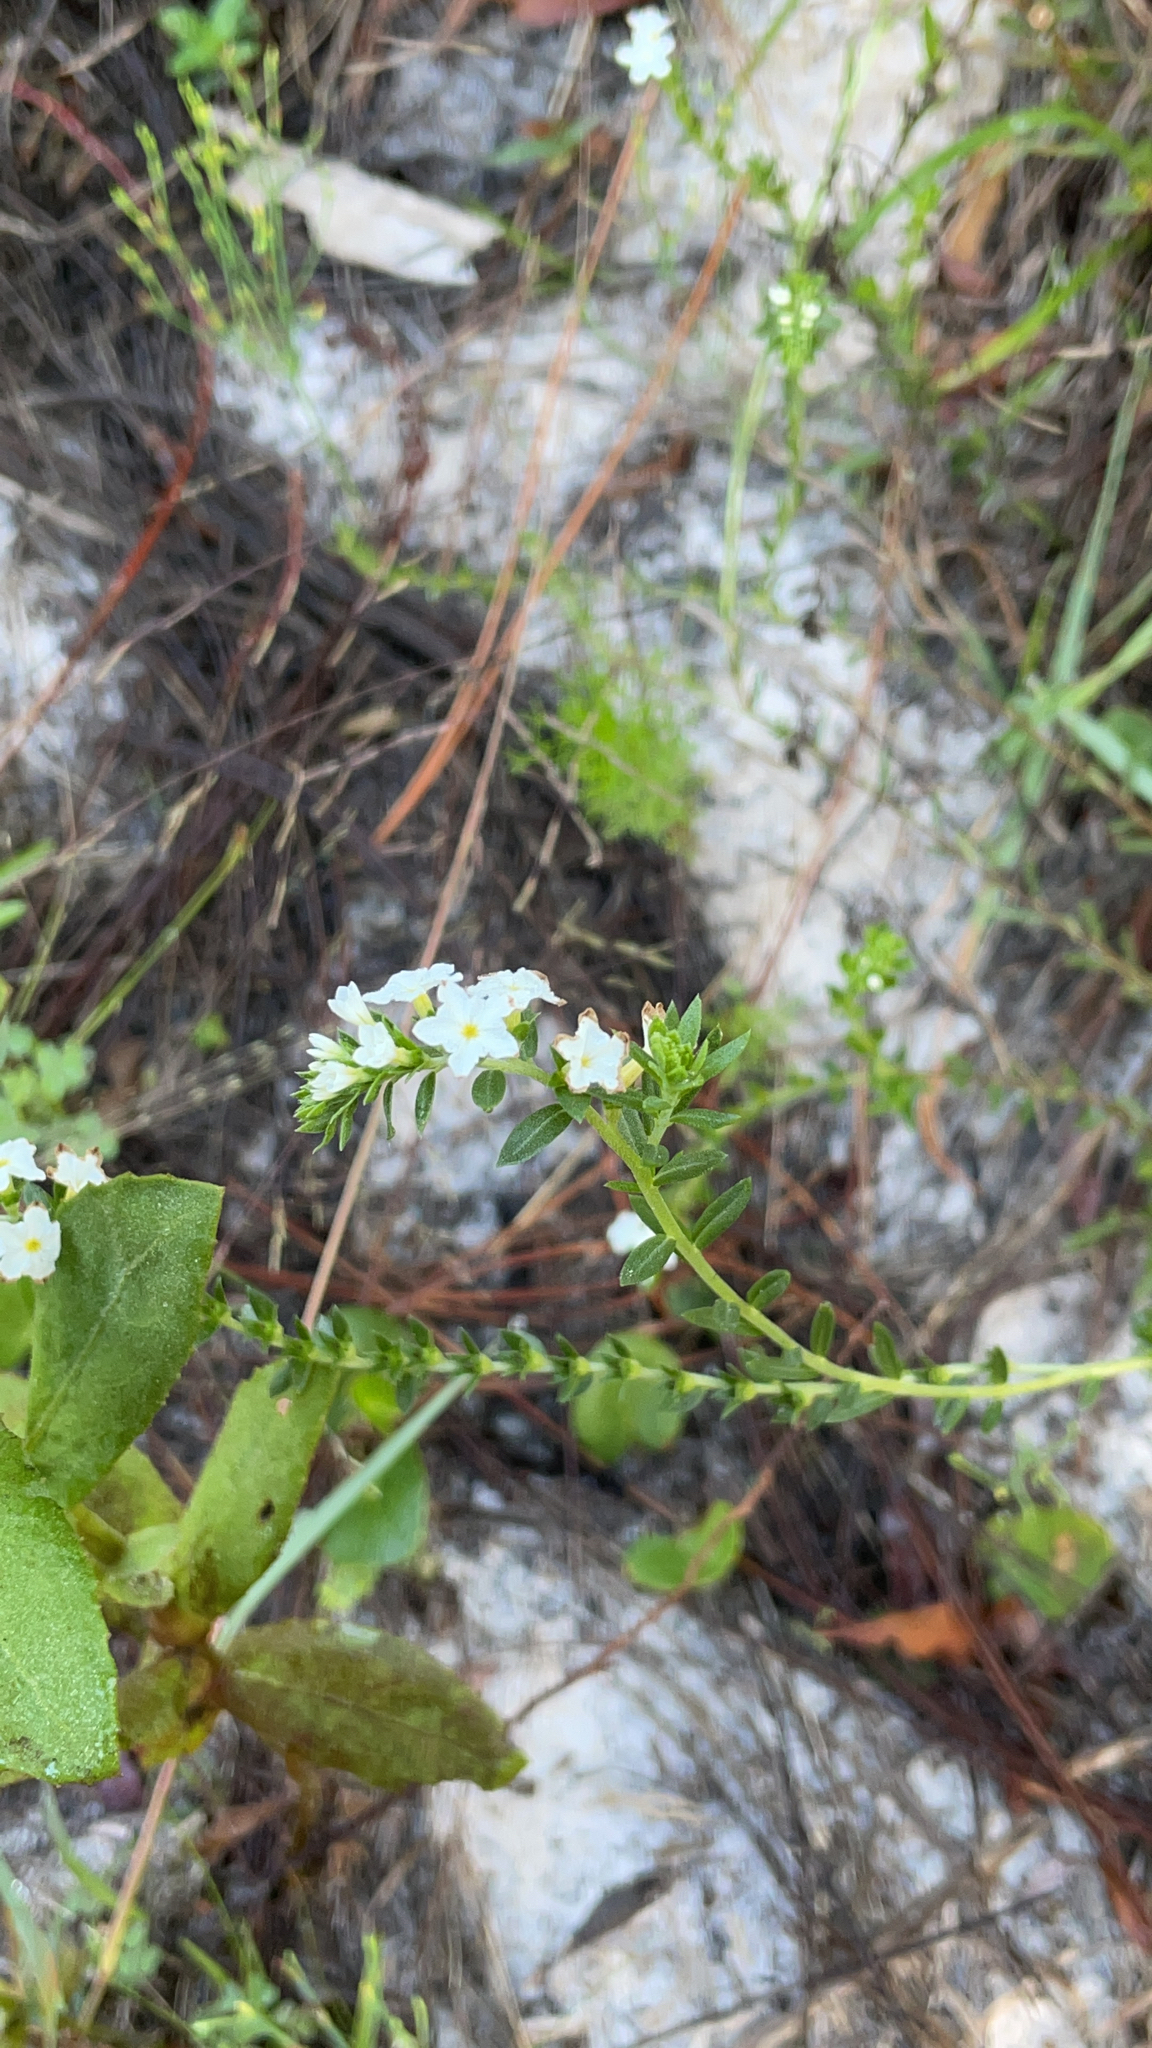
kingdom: Plantae
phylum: Tracheophyta
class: Magnoliopsida
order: Boraginales
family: Heliotropiaceae
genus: Euploca
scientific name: Euploca polyphylla
